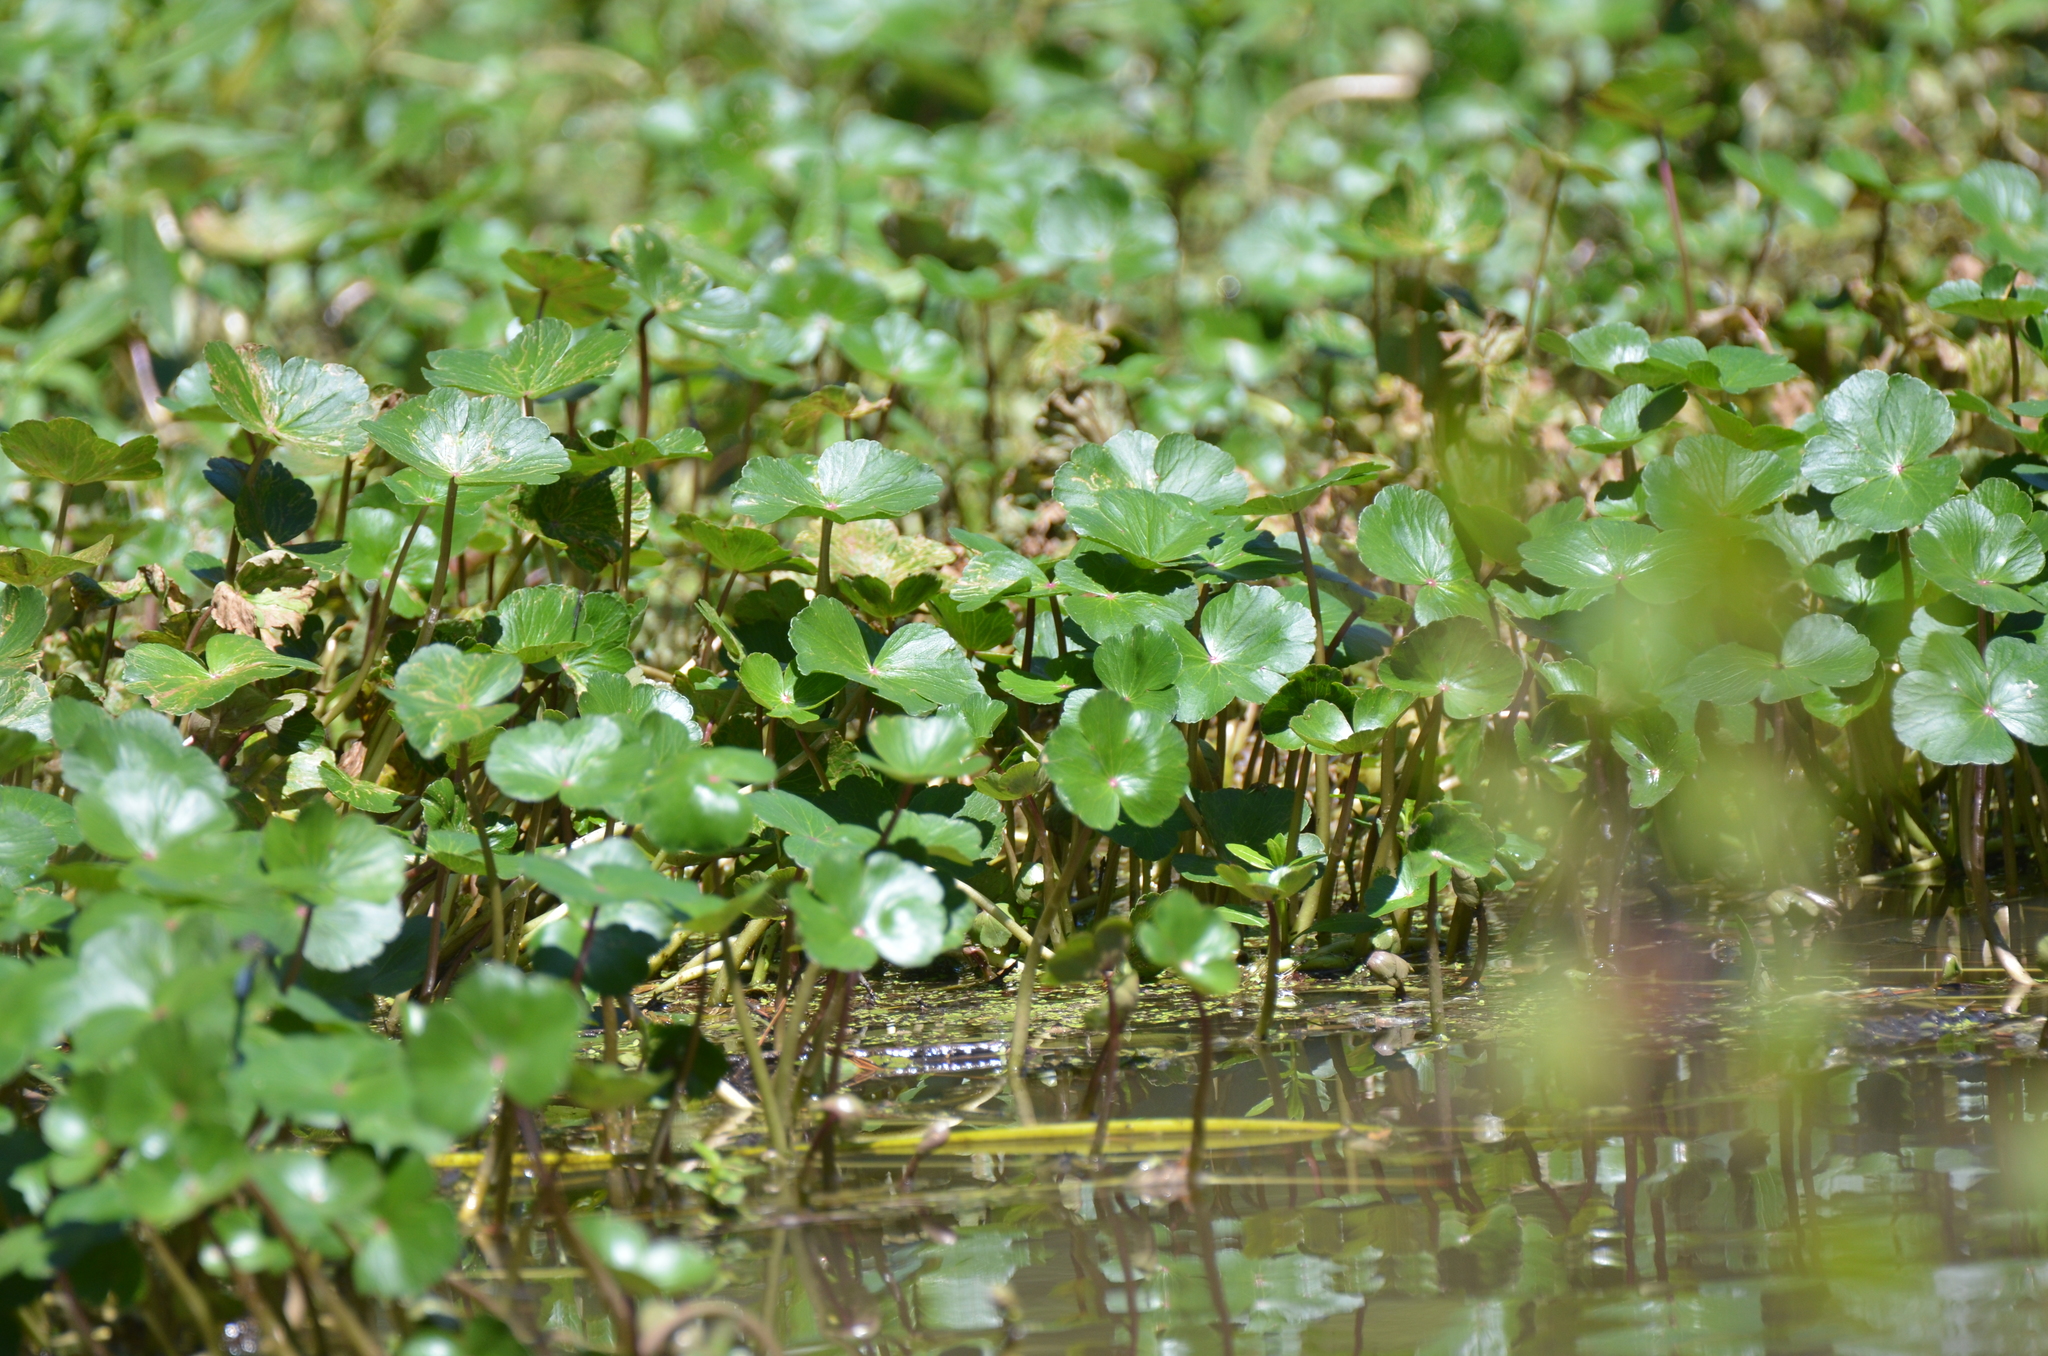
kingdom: Plantae
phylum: Tracheophyta
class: Magnoliopsida
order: Apiales
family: Araliaceae
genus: Hydrocotyle
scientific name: Hydrocotyle ranunculoides
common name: Floating pennywort
